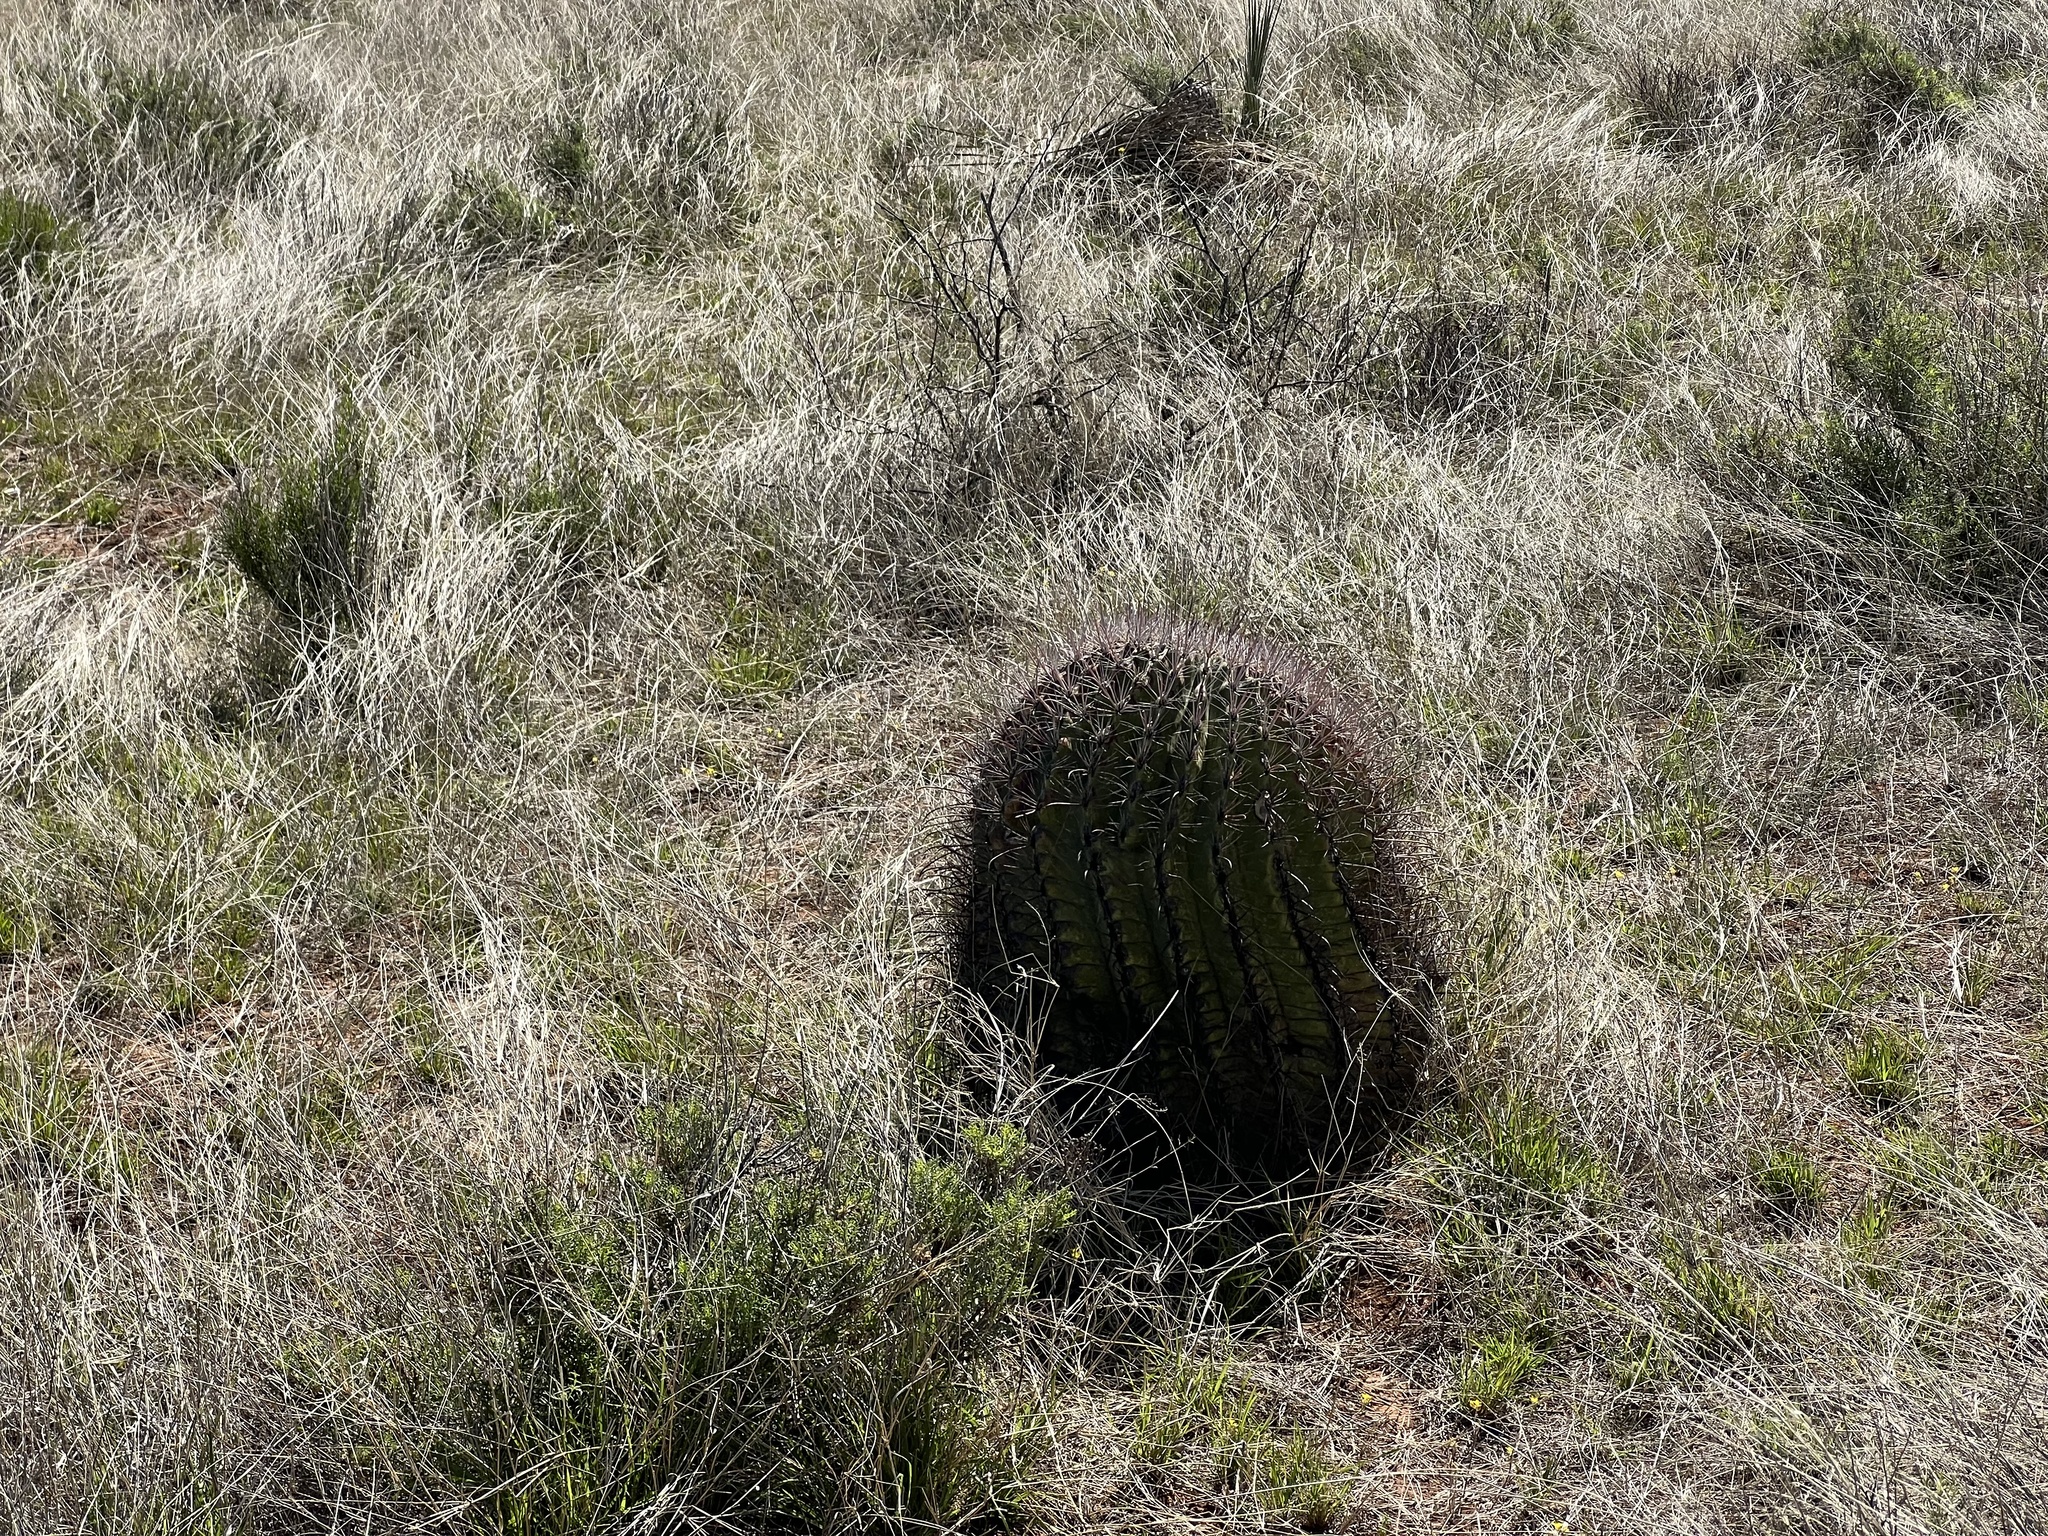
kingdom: Plantae
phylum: Tracheophyta
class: Magnoliopsida
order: Caryophyllales
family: Cactaceae
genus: Ferocactus
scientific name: Ferocactus wislizeni
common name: Candy barrel cactus
